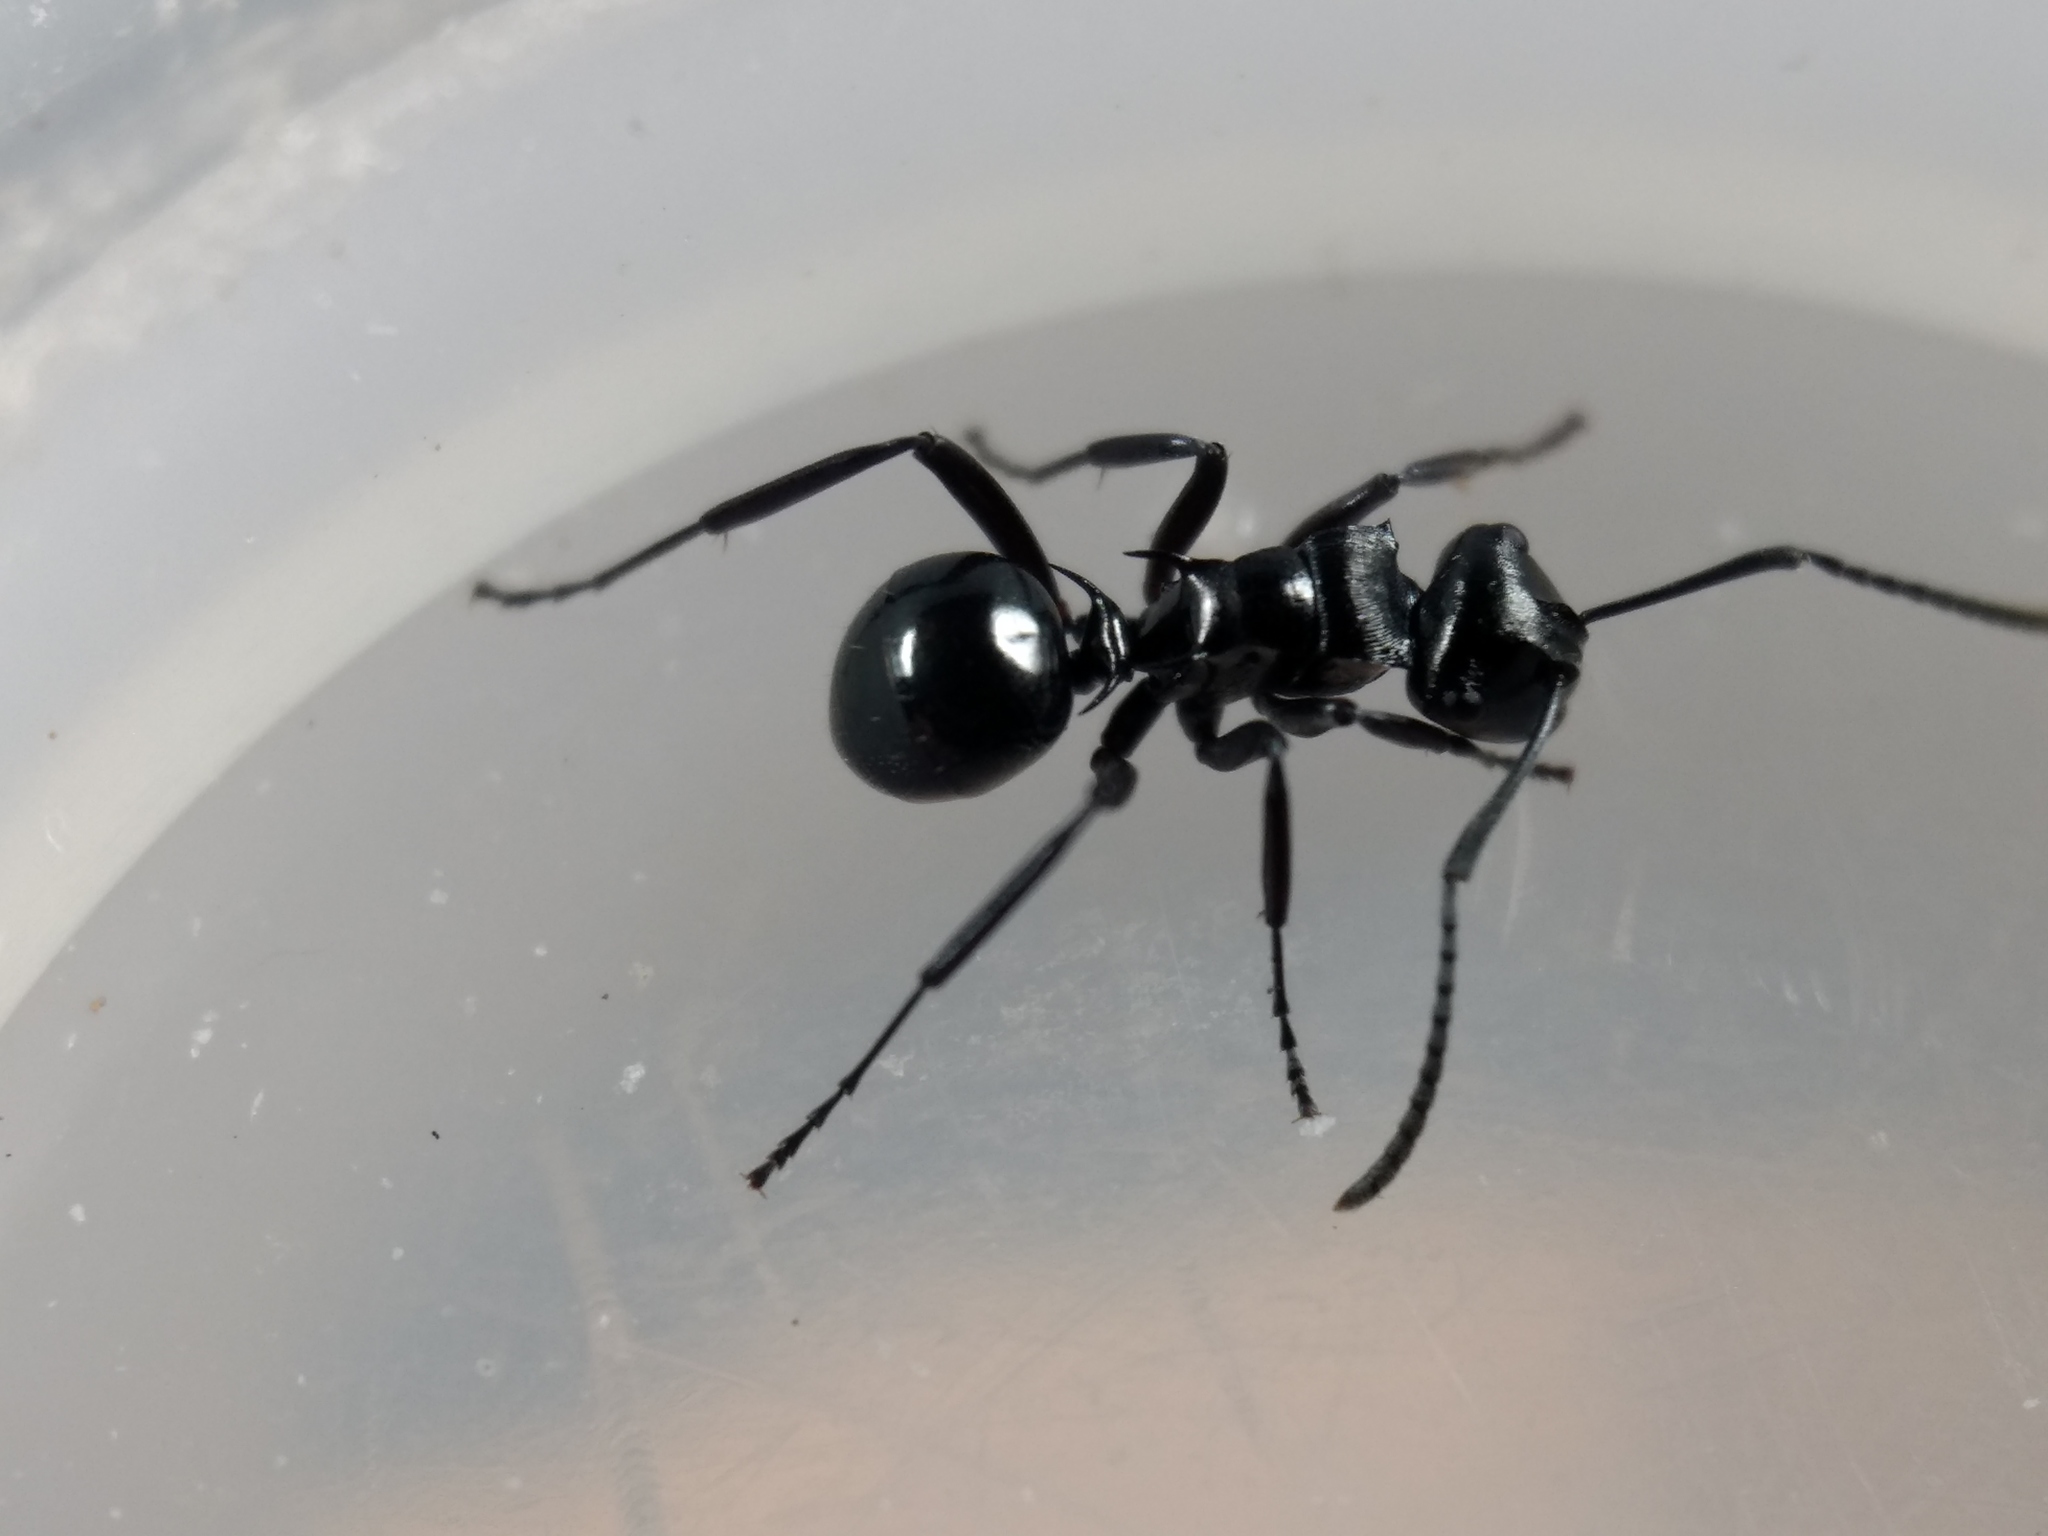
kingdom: Animalia
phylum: Arthropoda
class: Insecta
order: Hymenoptera
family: Formicidae
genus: Polyrhachis
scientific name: Polyrhachis clio
